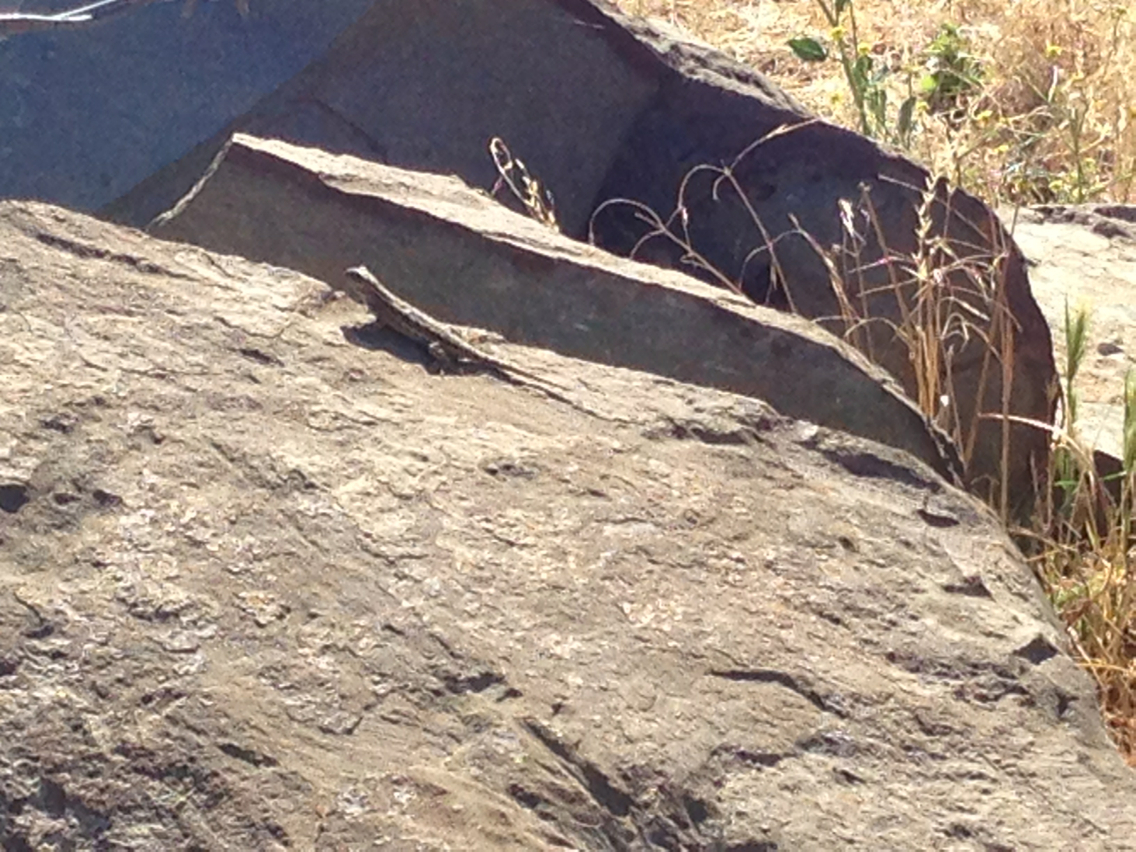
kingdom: Animalia
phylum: Chordata
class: Squamata
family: Phrynosomatidae
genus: Sceloporus
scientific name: Sceloporus occidentalis
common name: Western fence lizard
